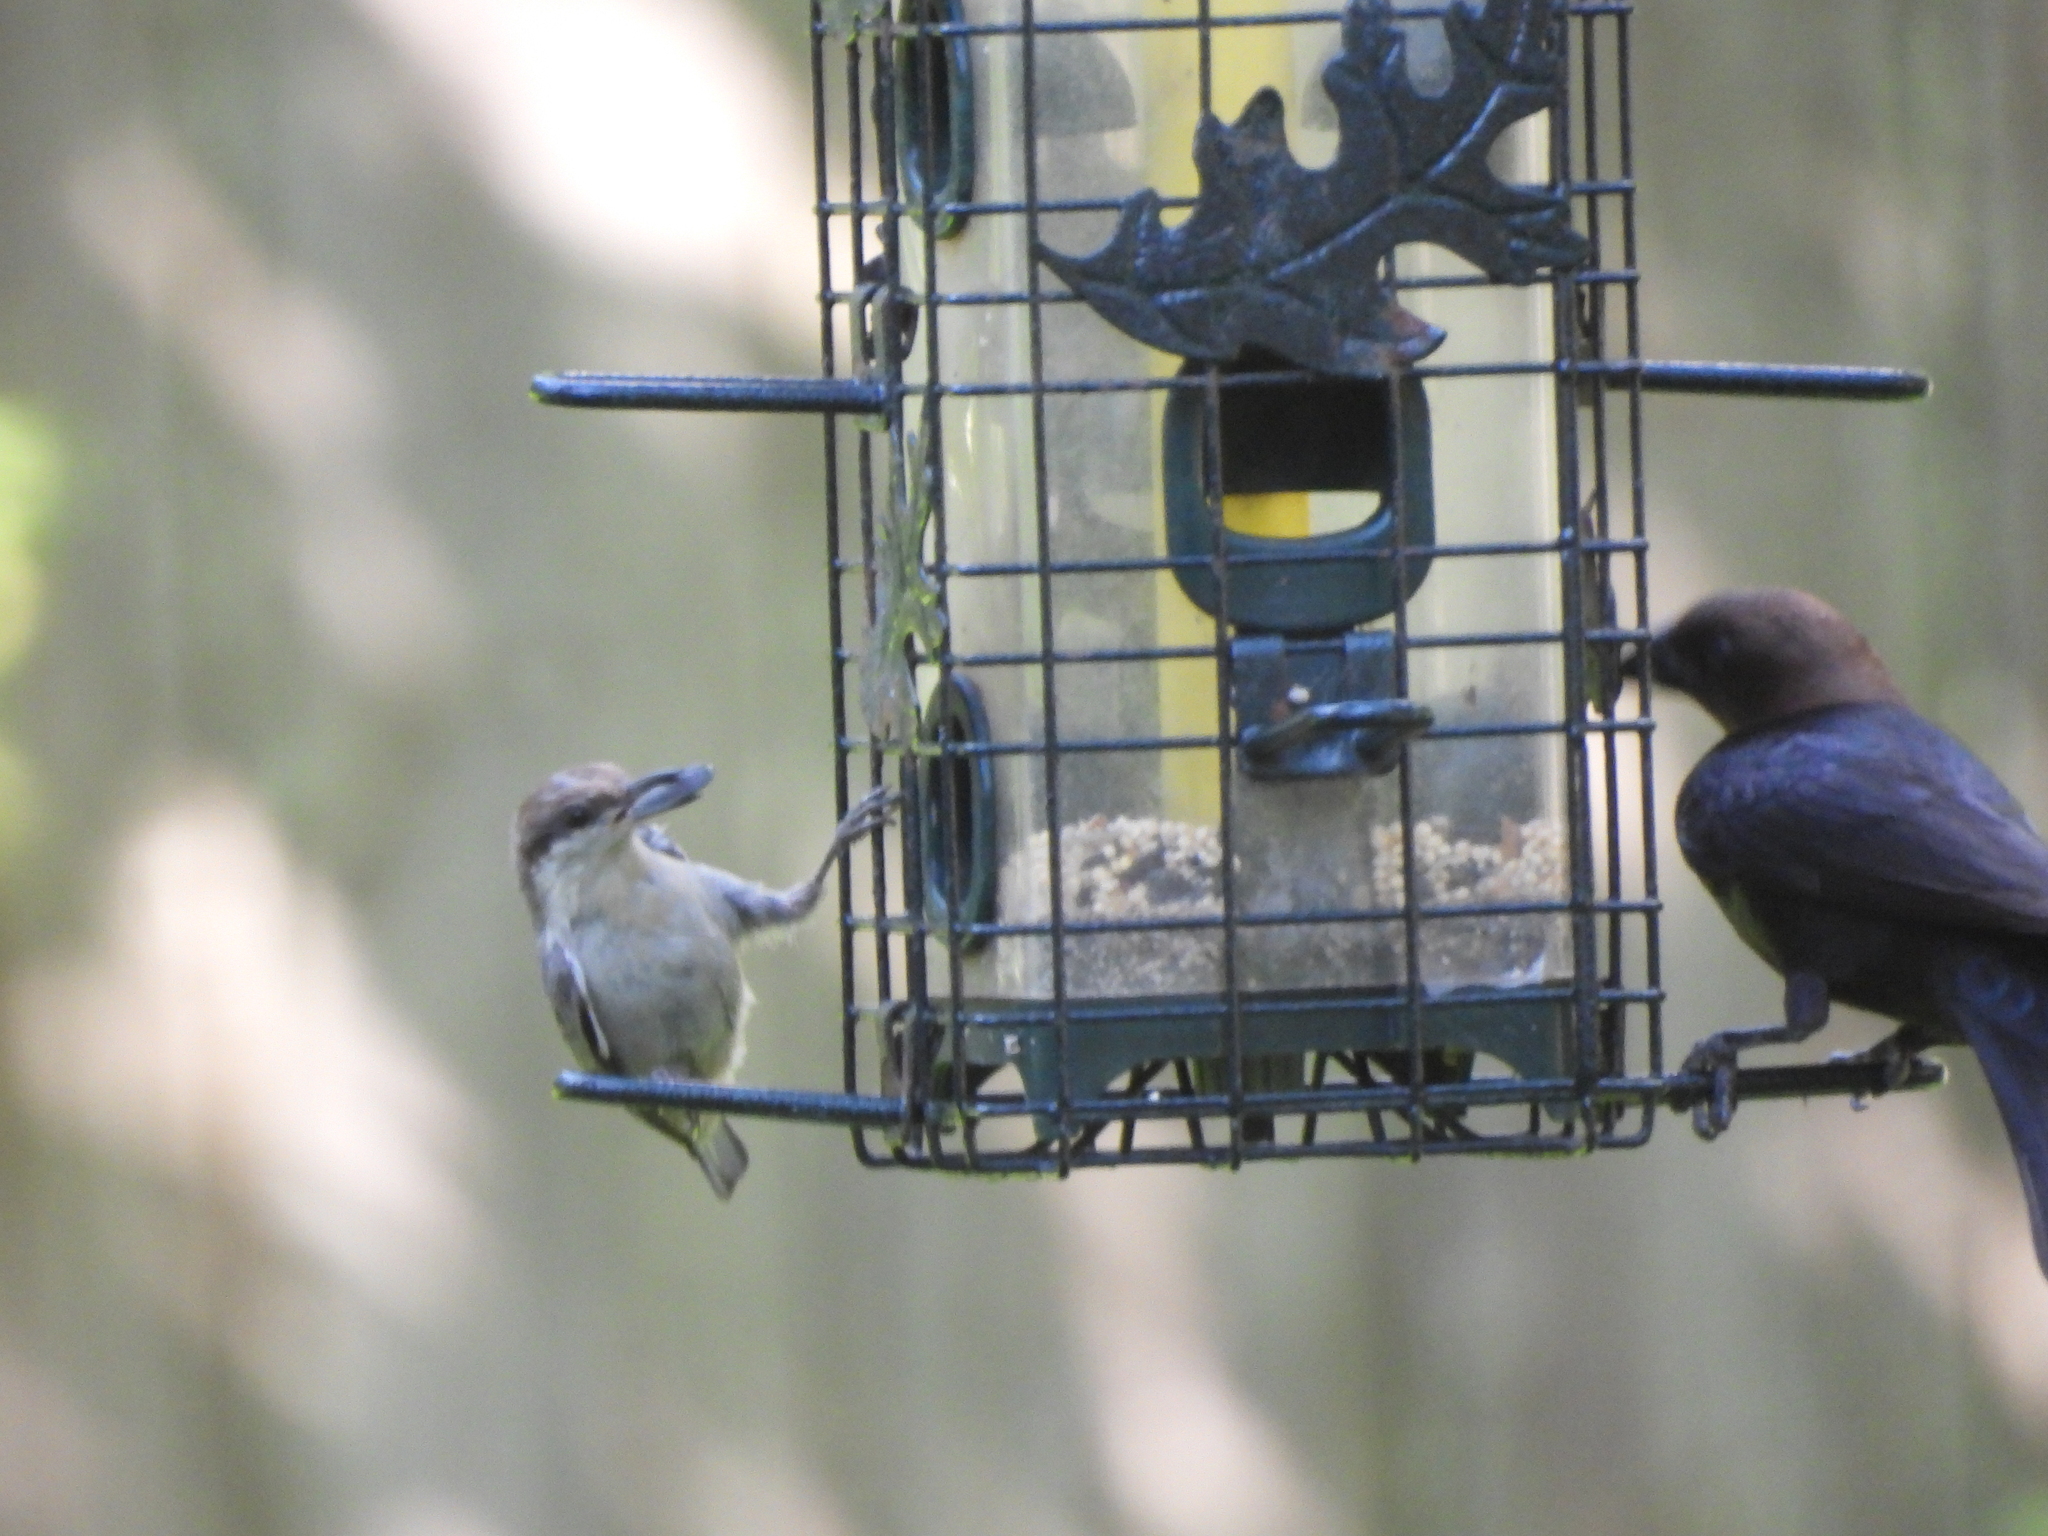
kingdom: Animalia
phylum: Chordata
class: Aves
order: Passeriformes
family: Sittidae
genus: Sitta
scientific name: Sitta pusilla
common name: Brown-headed nuthatch
